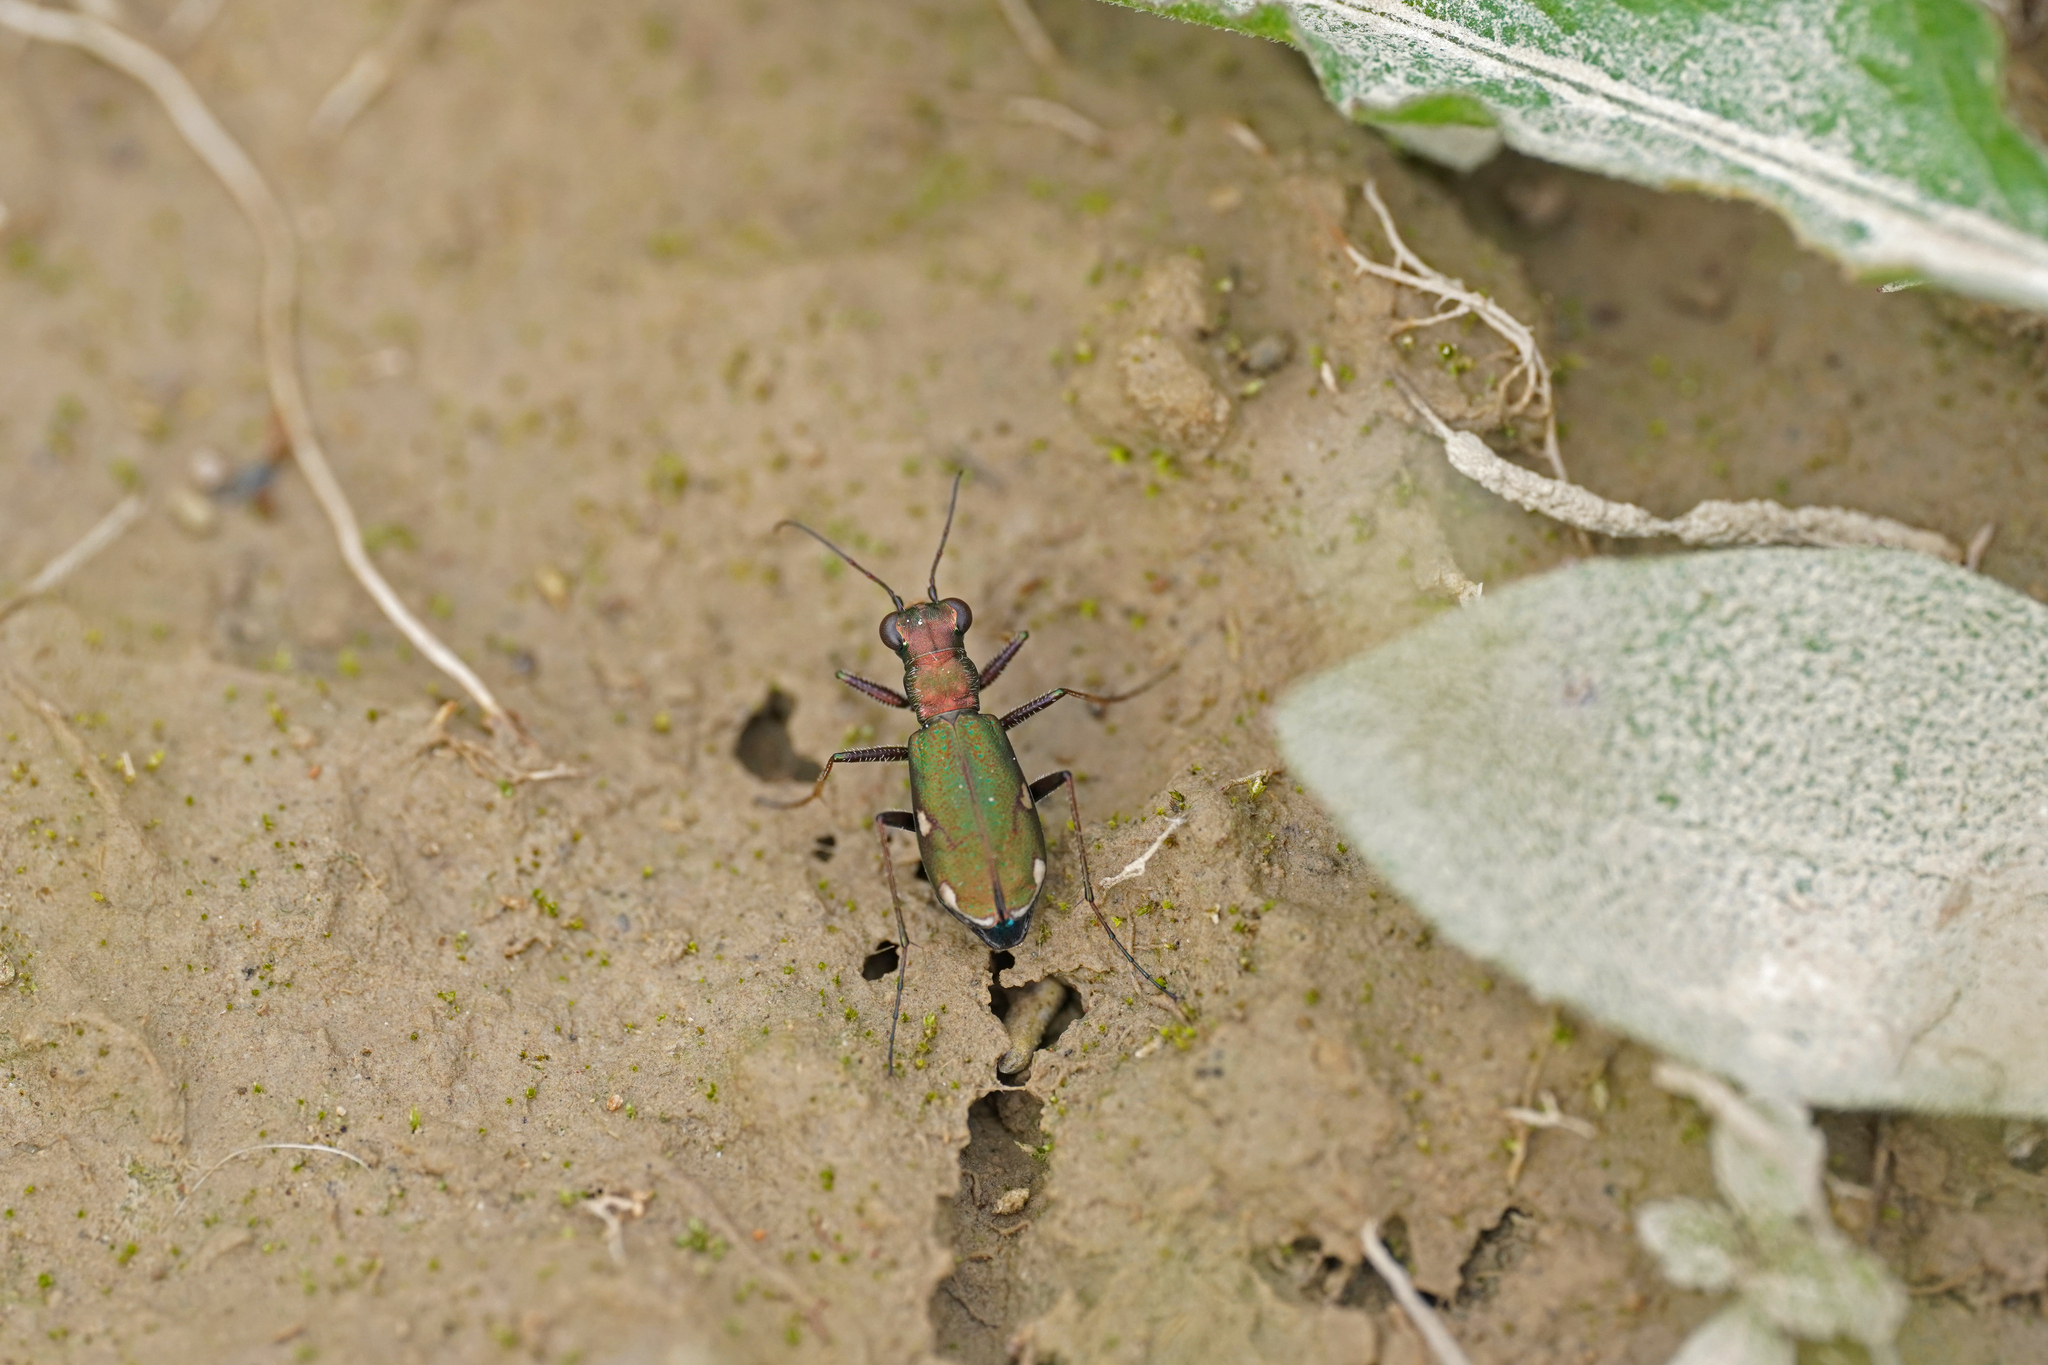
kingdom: Animalia
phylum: Arthropoda
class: Insecta
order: Coleoptera
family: Carabidae
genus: Cylindera
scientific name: Cylindera germanica
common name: Cliff tiger beetle
